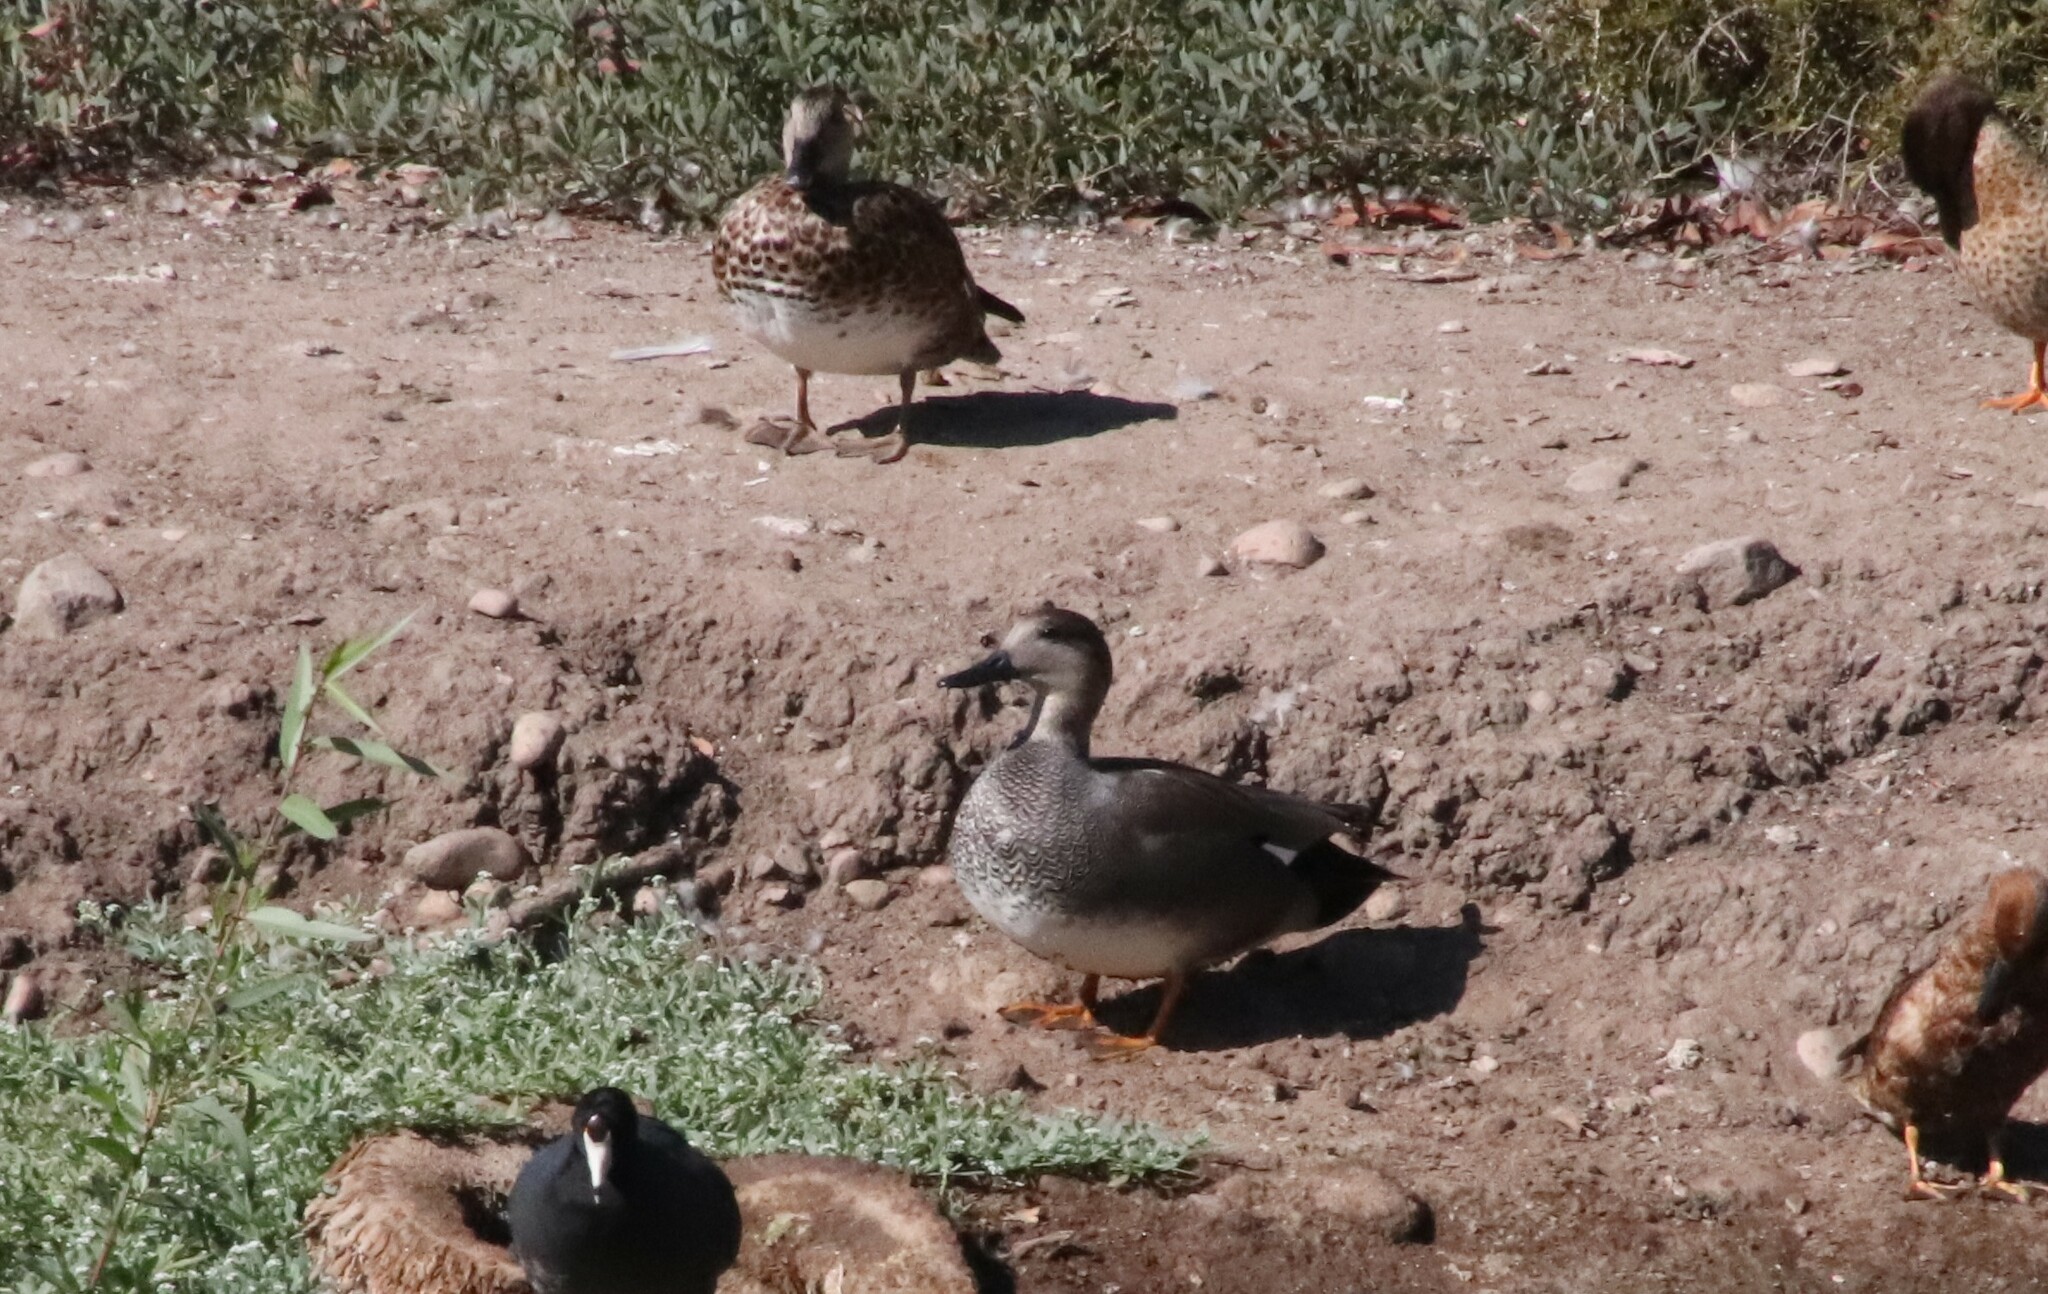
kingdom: Animalia
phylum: Chordata
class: Aves
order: Anseriformes
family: Anatidae
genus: Mareca
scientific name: Mareca strepera
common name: Gadwall
